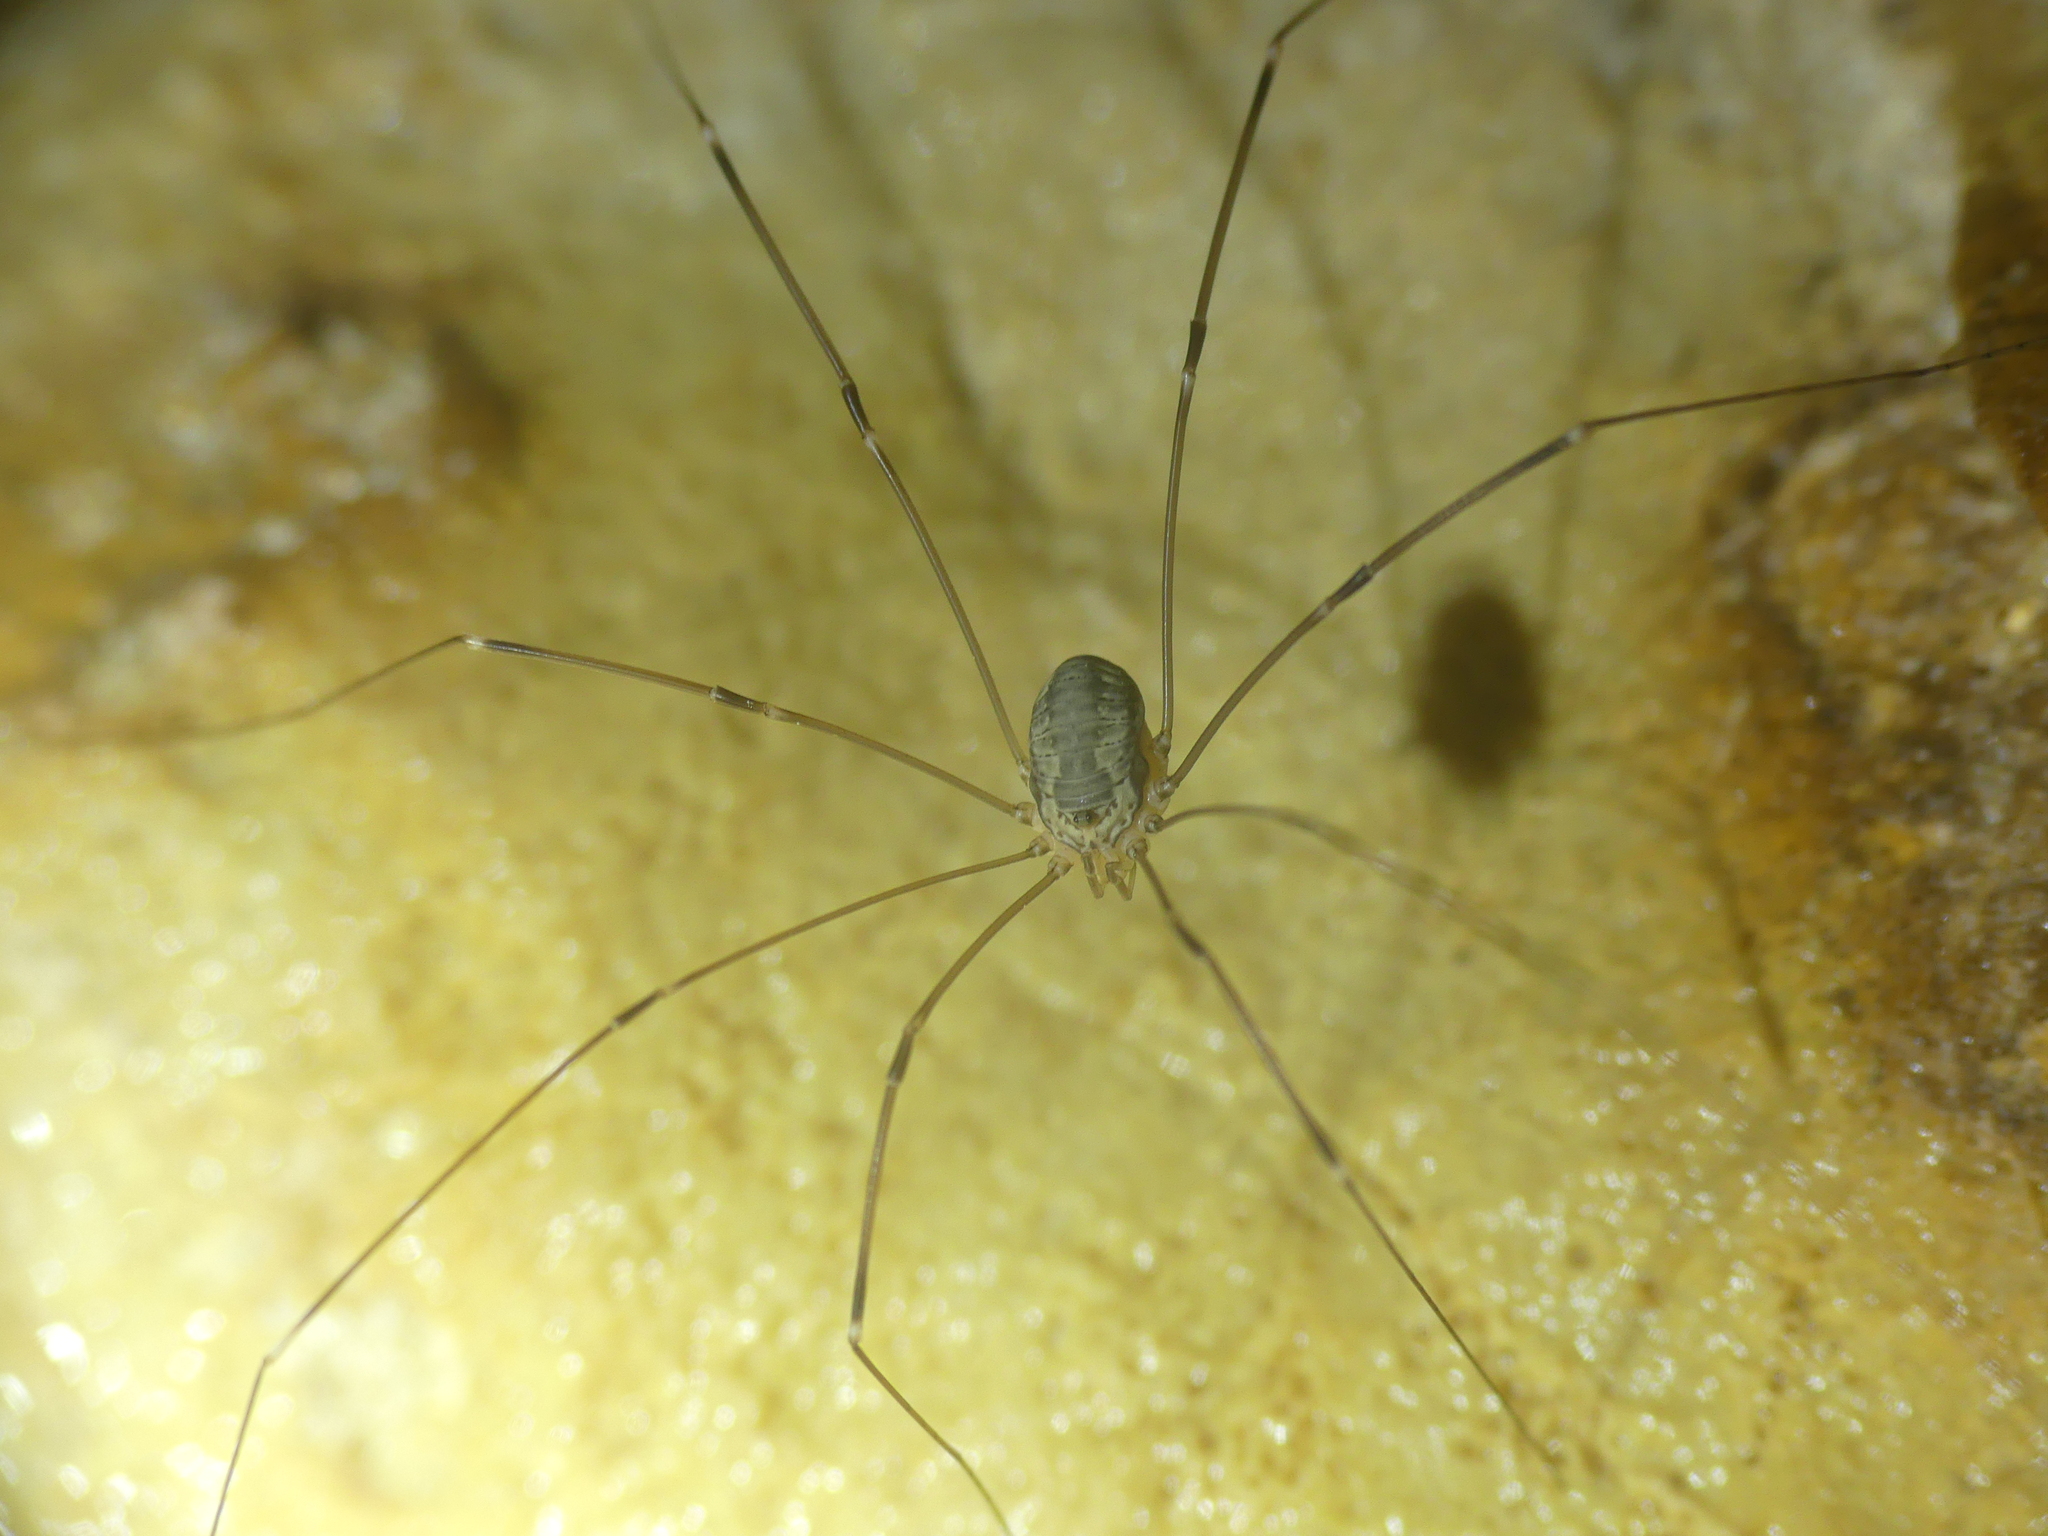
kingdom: Animalia
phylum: Arthropoda
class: Arachnida
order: Opiliones
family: Sclerosomatidae
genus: Leiobunum
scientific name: Leiobunum limbatum
